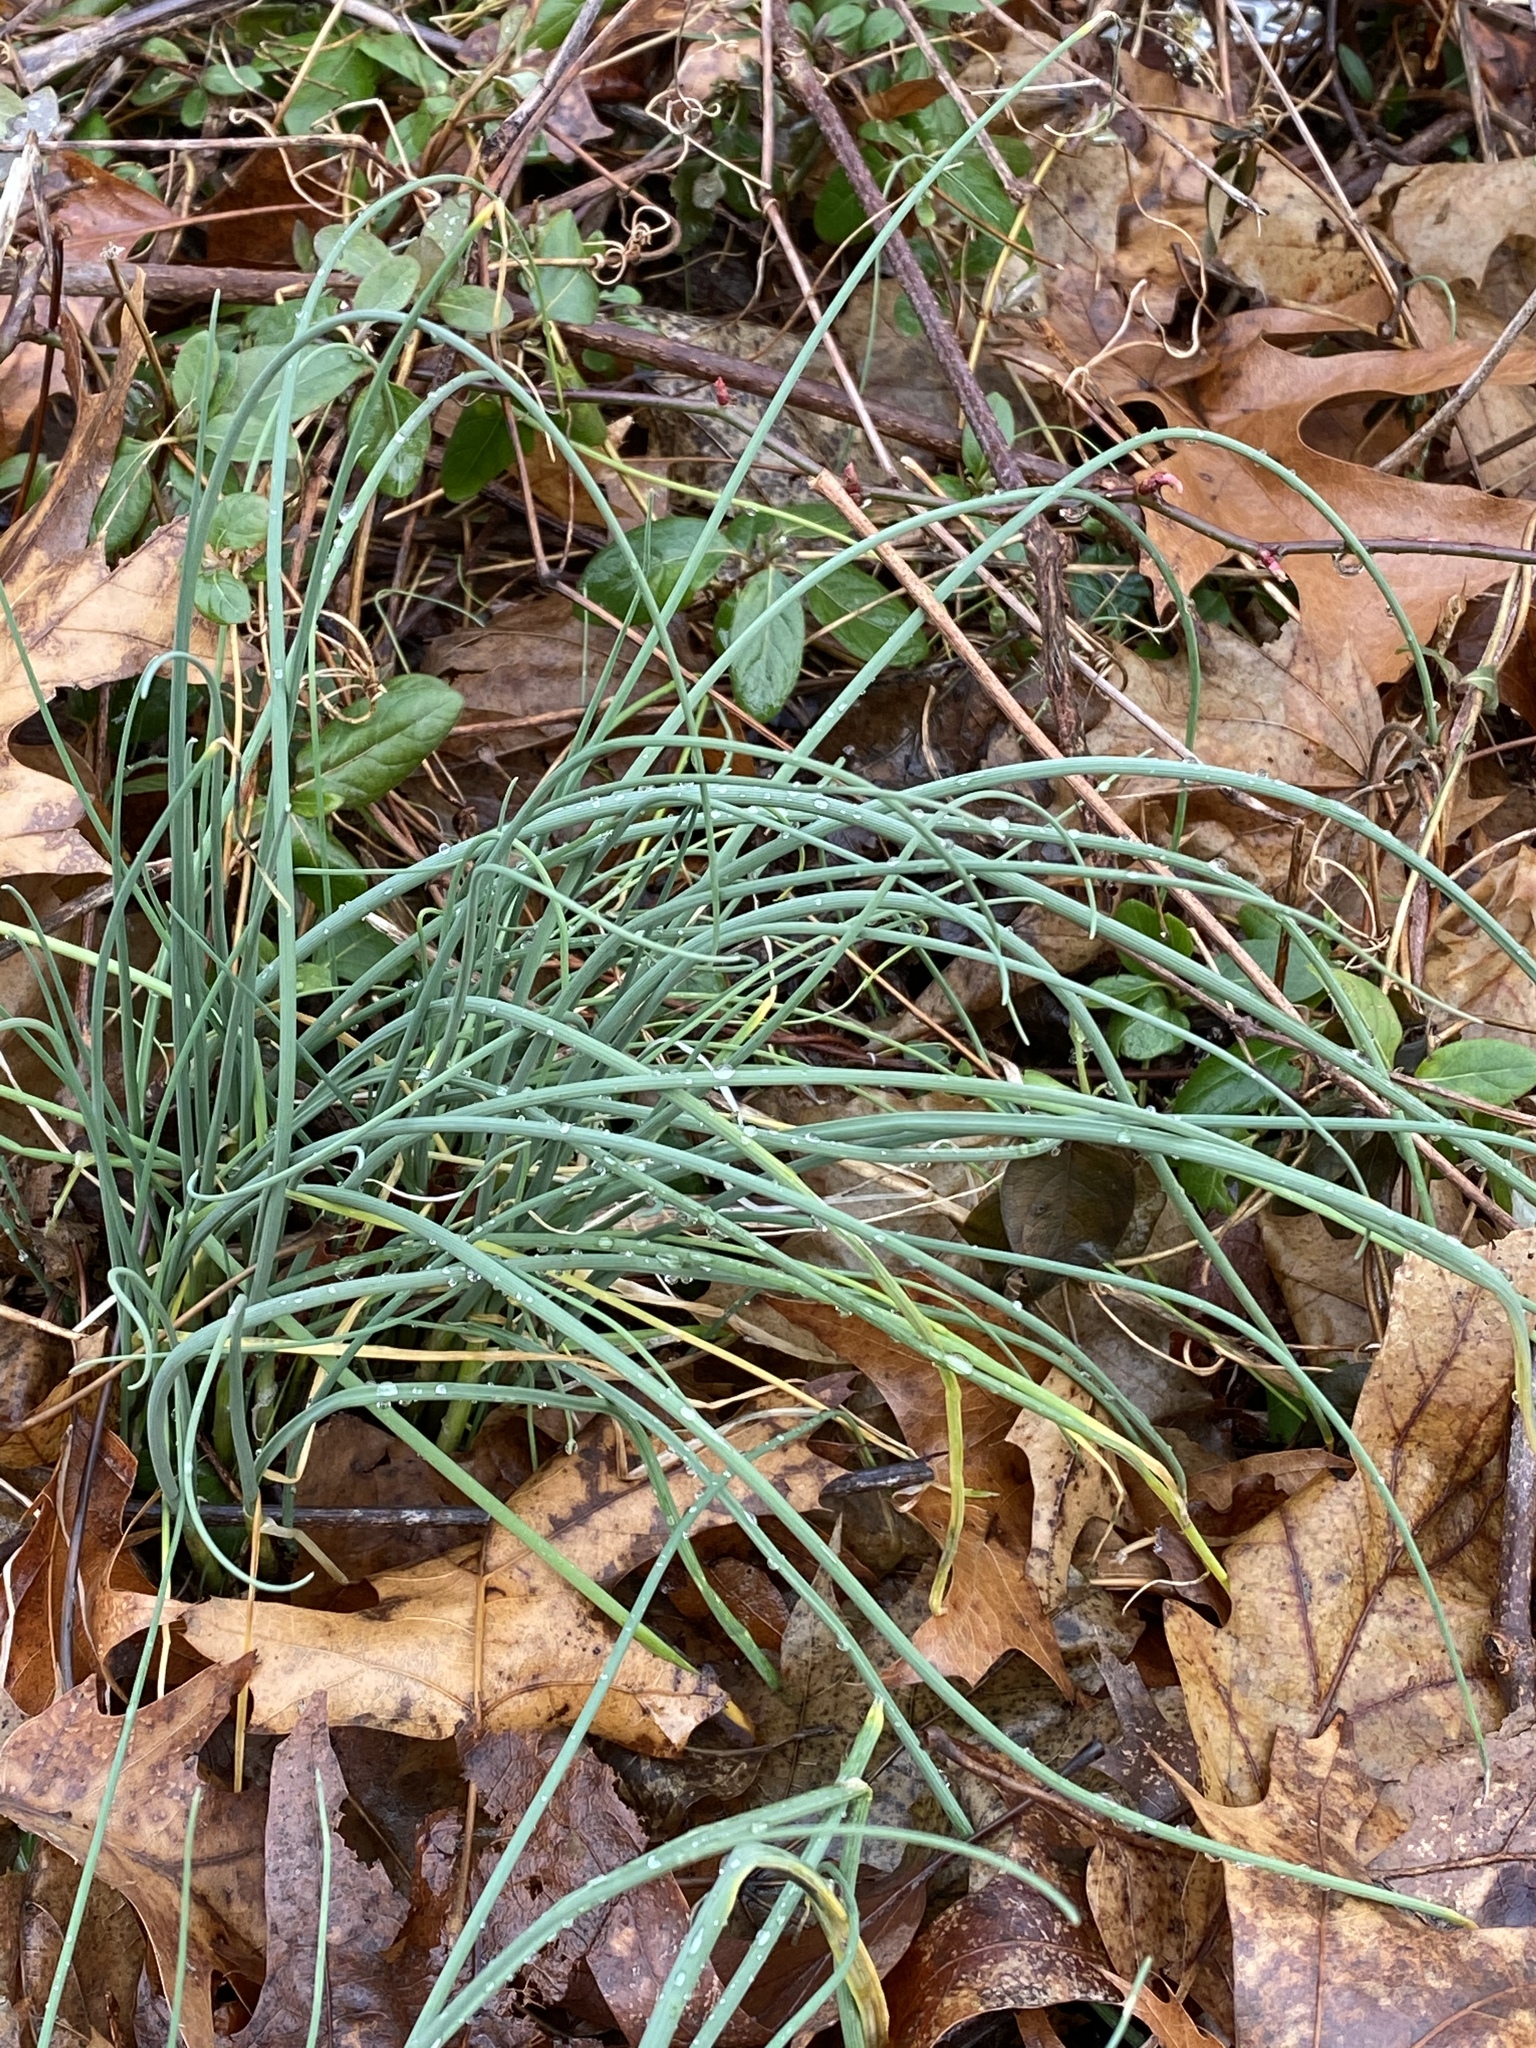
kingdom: Plantae
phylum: Tracheophyta
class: Liliopsida
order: Asparagales
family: Amaryllidaceae
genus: Allium
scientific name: Allium vineale
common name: Crow garlic
